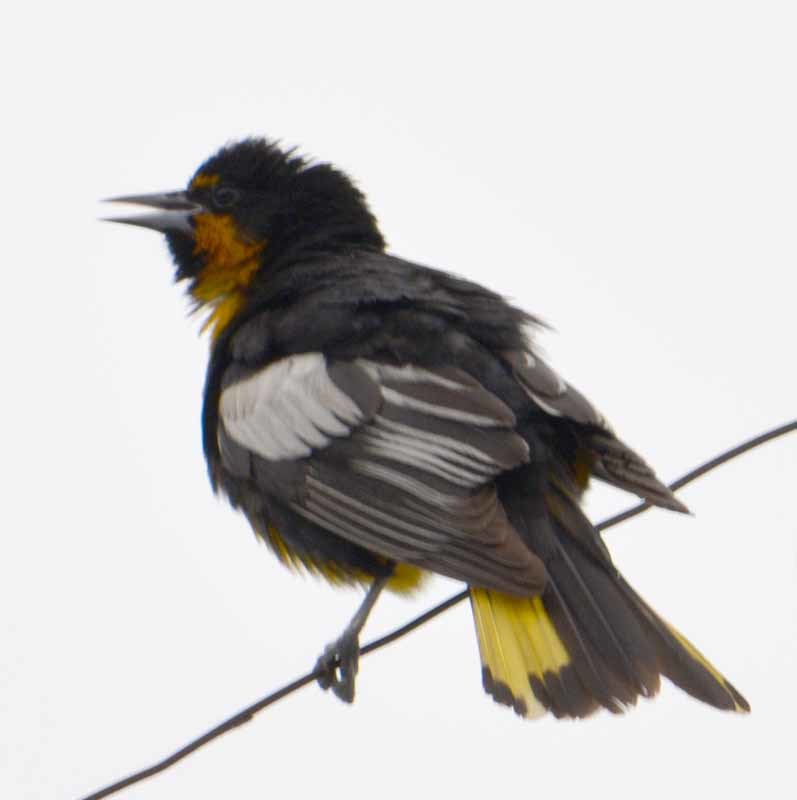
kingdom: Animalia
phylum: Chordata
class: Aves
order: Passeriformes
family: Icteridae
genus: Icterus
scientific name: Icterus abeillei
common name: Black-backed oriole
